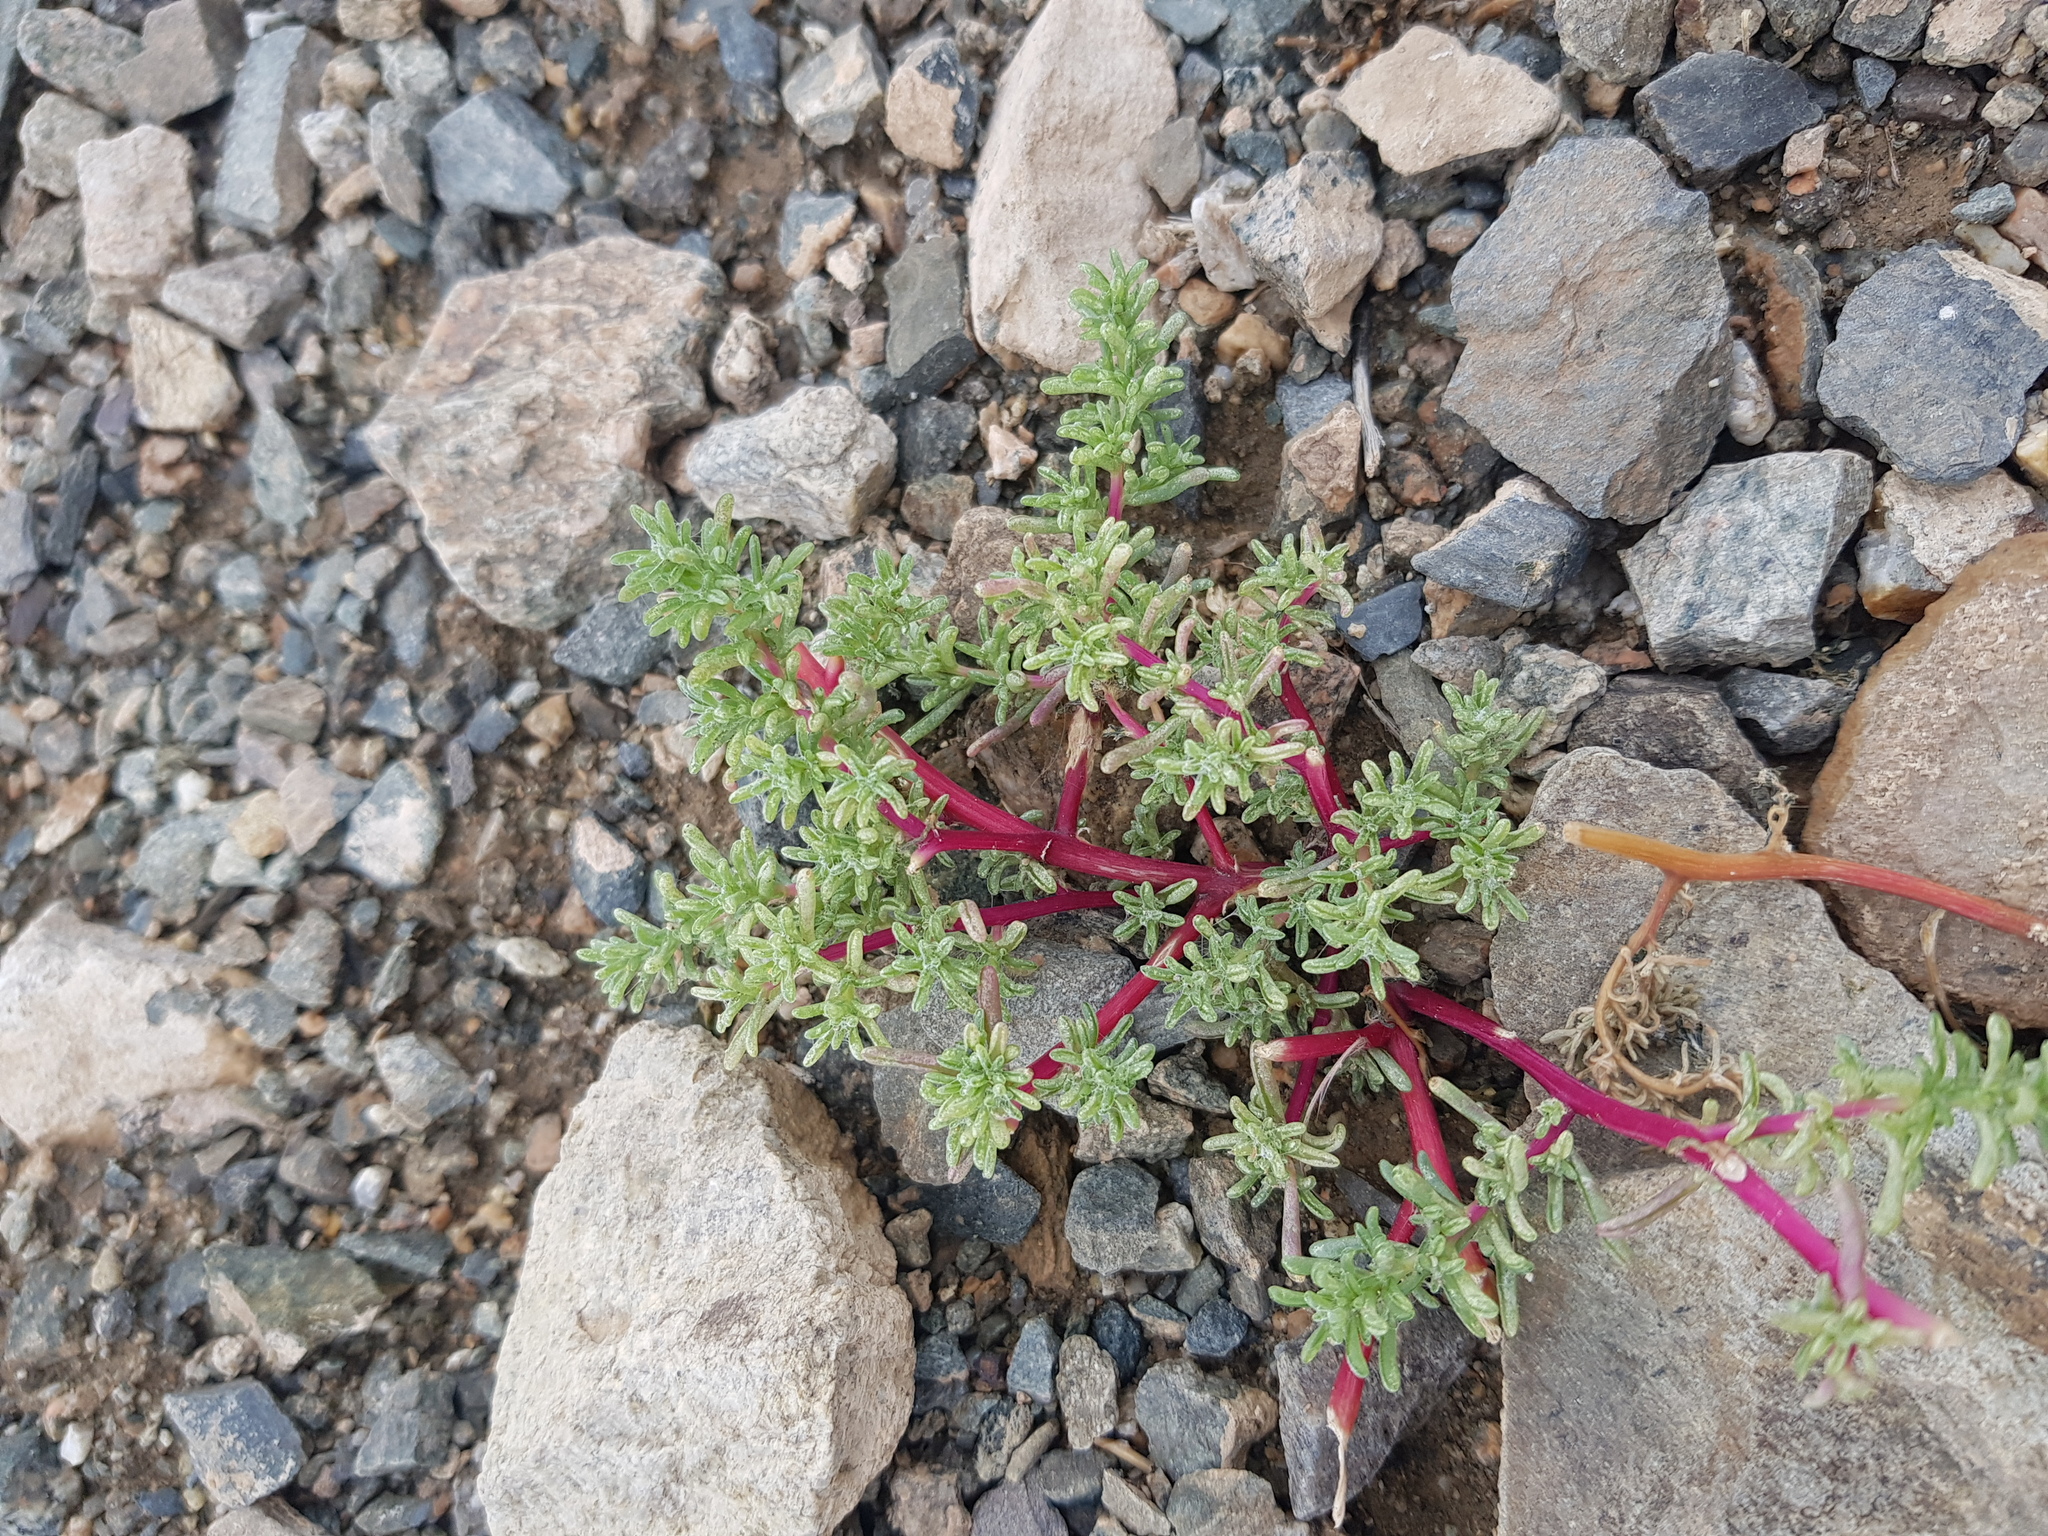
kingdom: Plantae
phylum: Tracheophyta
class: Magnoliopsida
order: Caryophyllales
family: Amaranthaceae
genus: Halogeton
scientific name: Halogeton arachnoides
